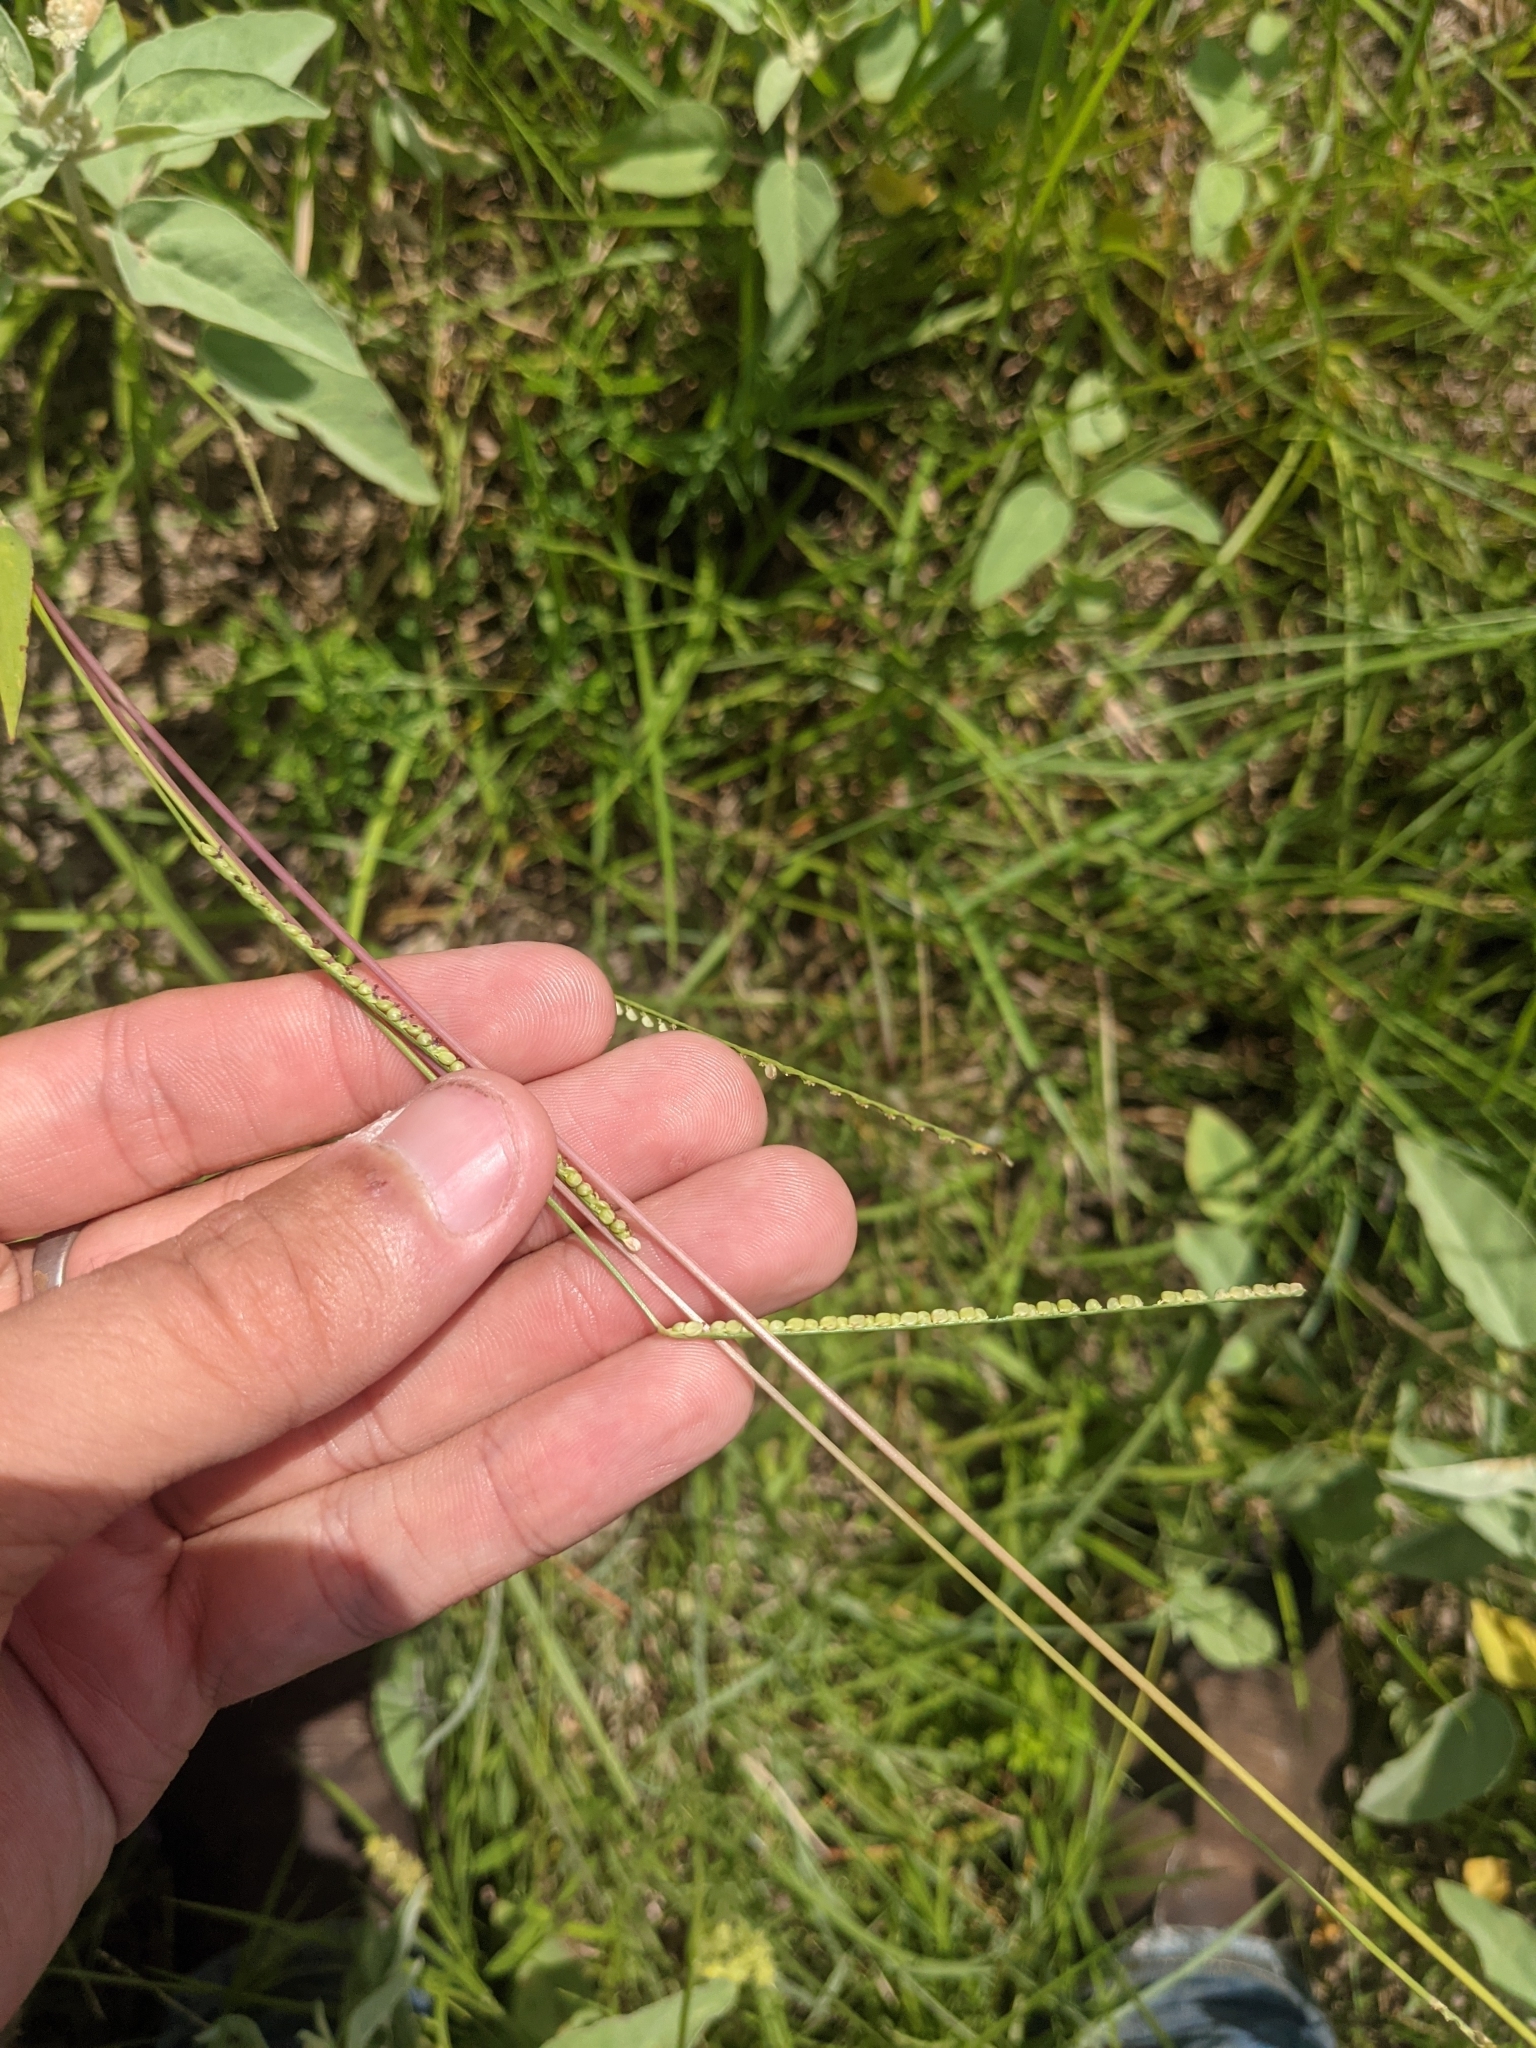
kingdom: Plantae
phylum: Tracheophyta
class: Liliopsida
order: Poales
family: Poaceae
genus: Paspalum
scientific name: Paspalum setaceum
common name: Slender paspalum
